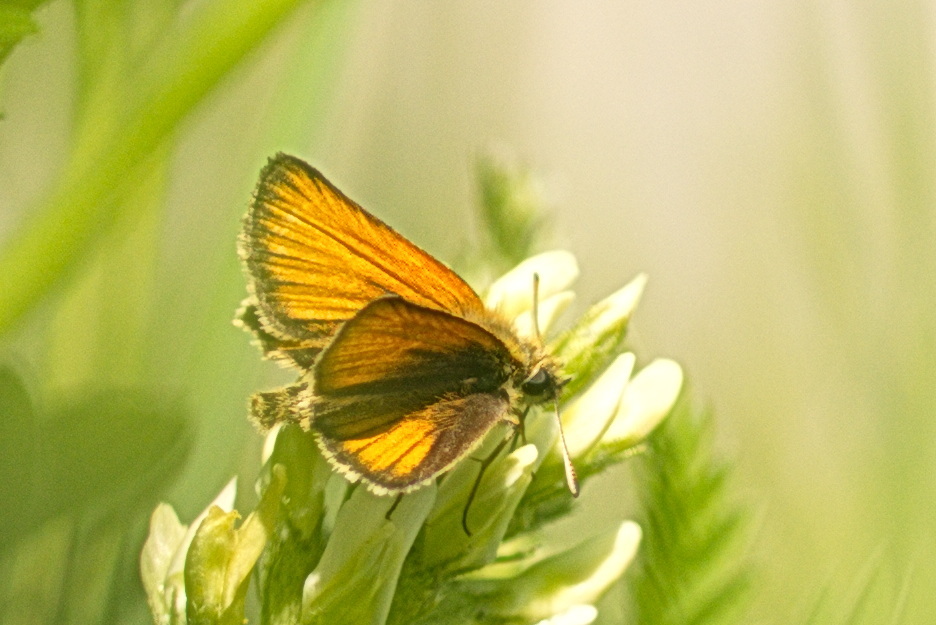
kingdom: Animalia
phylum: Arthropoda
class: Insecta
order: Lepidoptera
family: Hesperiidae
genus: Thymelicus
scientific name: Thymelicus lineola
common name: Essex skipper
